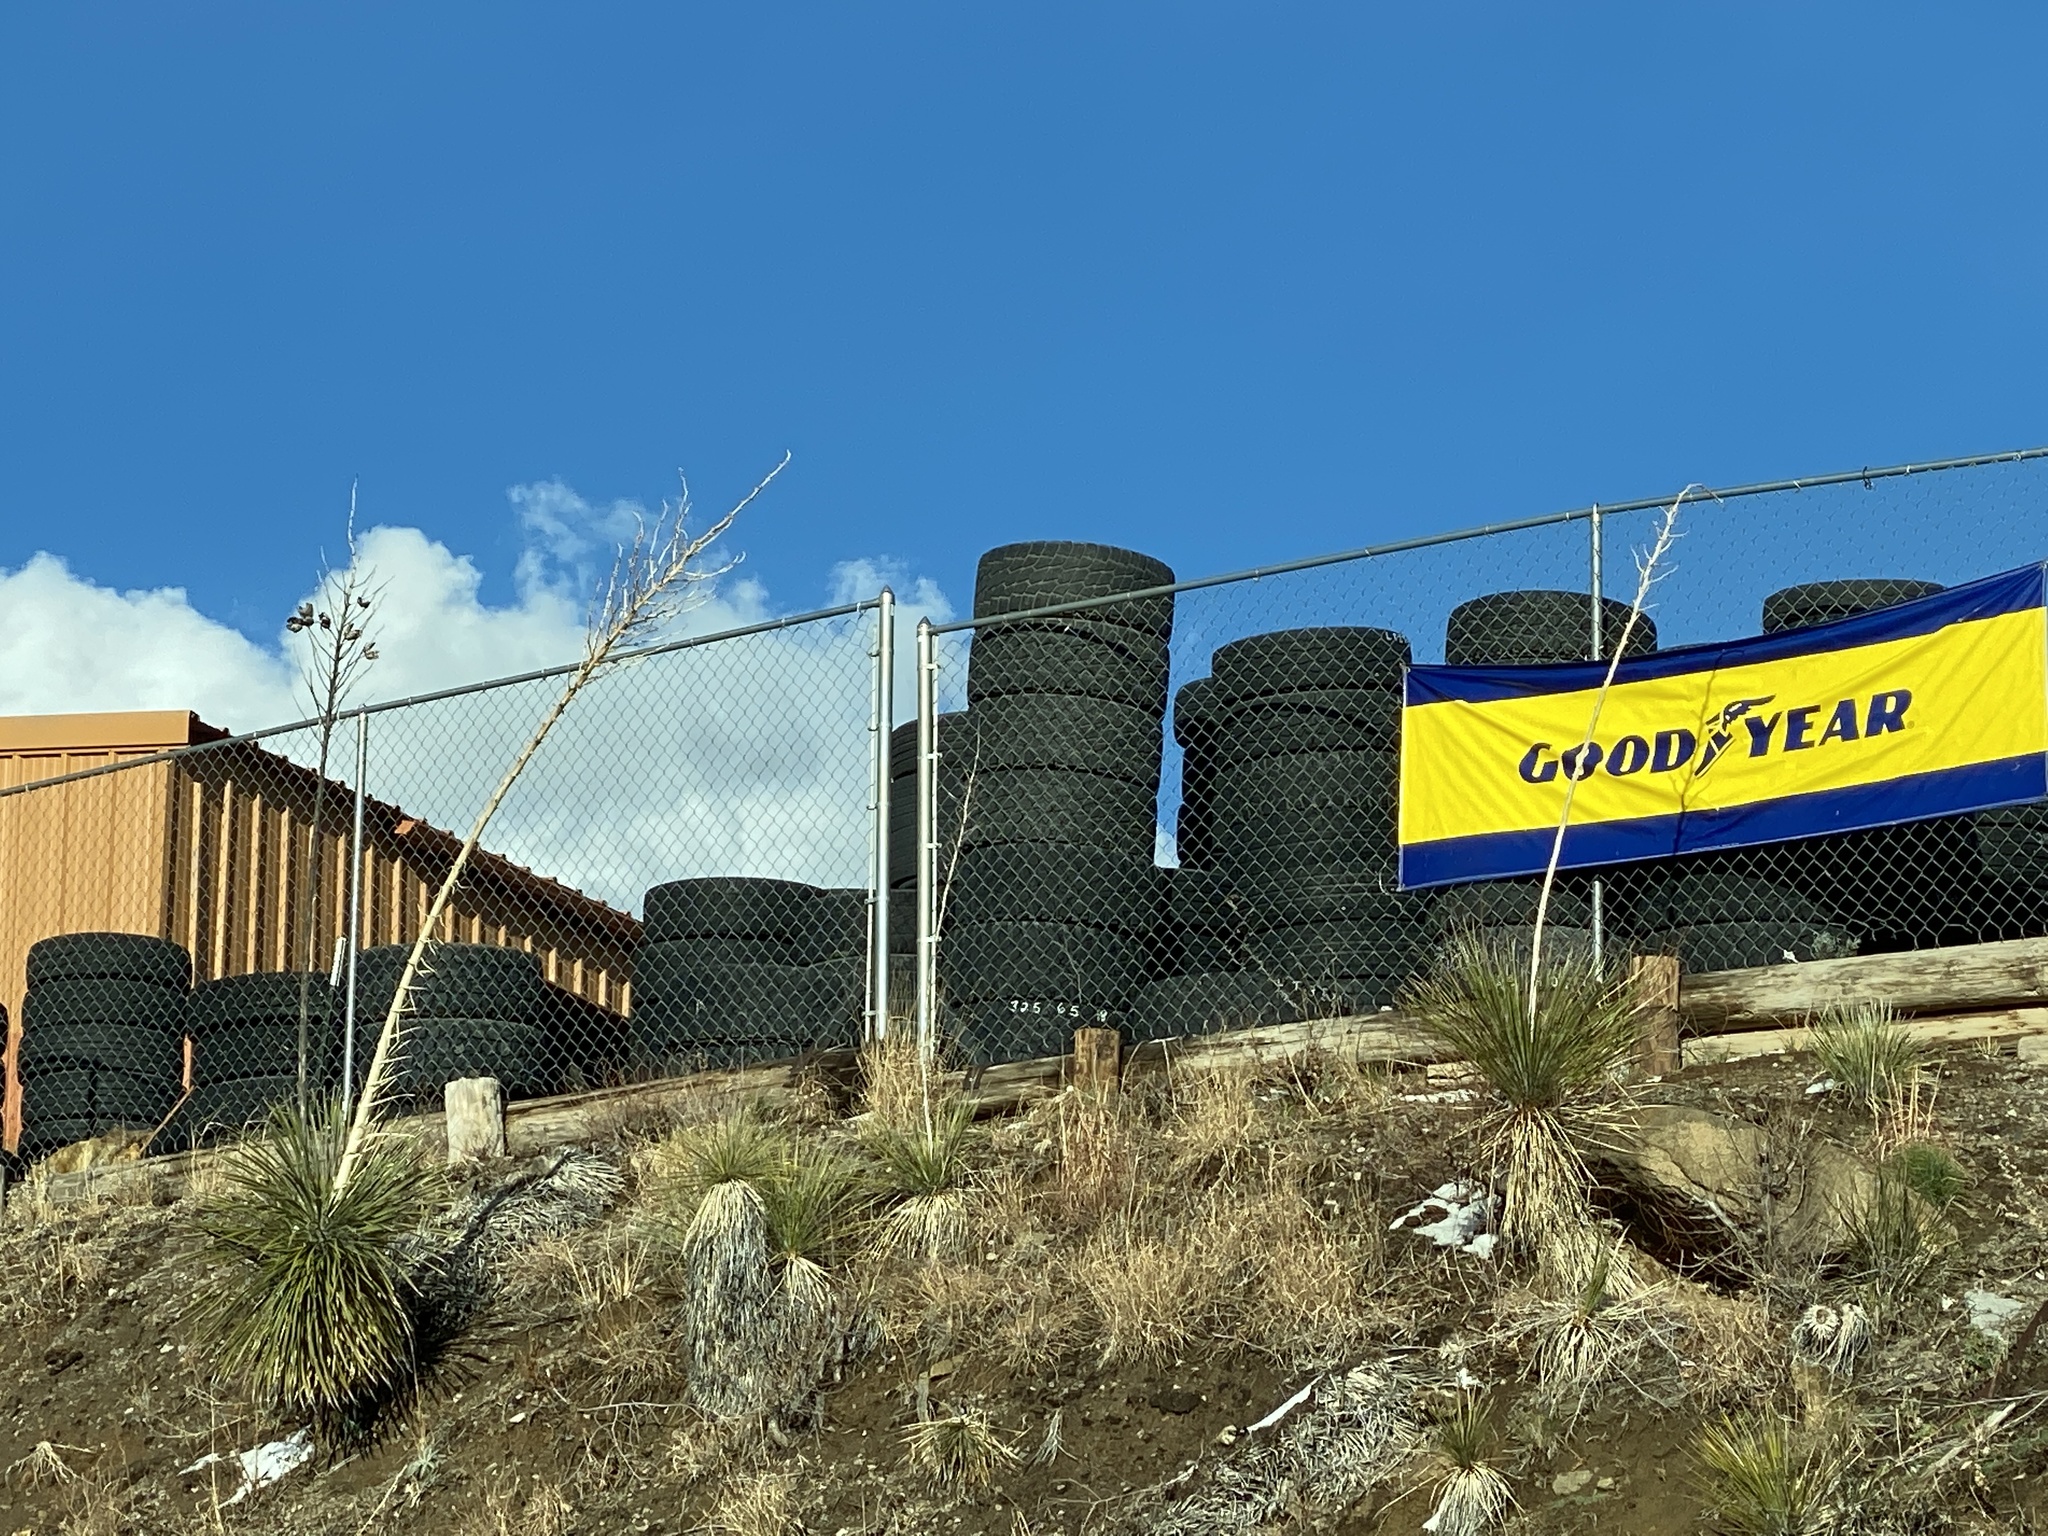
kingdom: Plantae
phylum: Tracheophyta
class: Liliopsida
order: Asparagales
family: Asparagaceae
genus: Yucca
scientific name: Yucca elata
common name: Palmella
